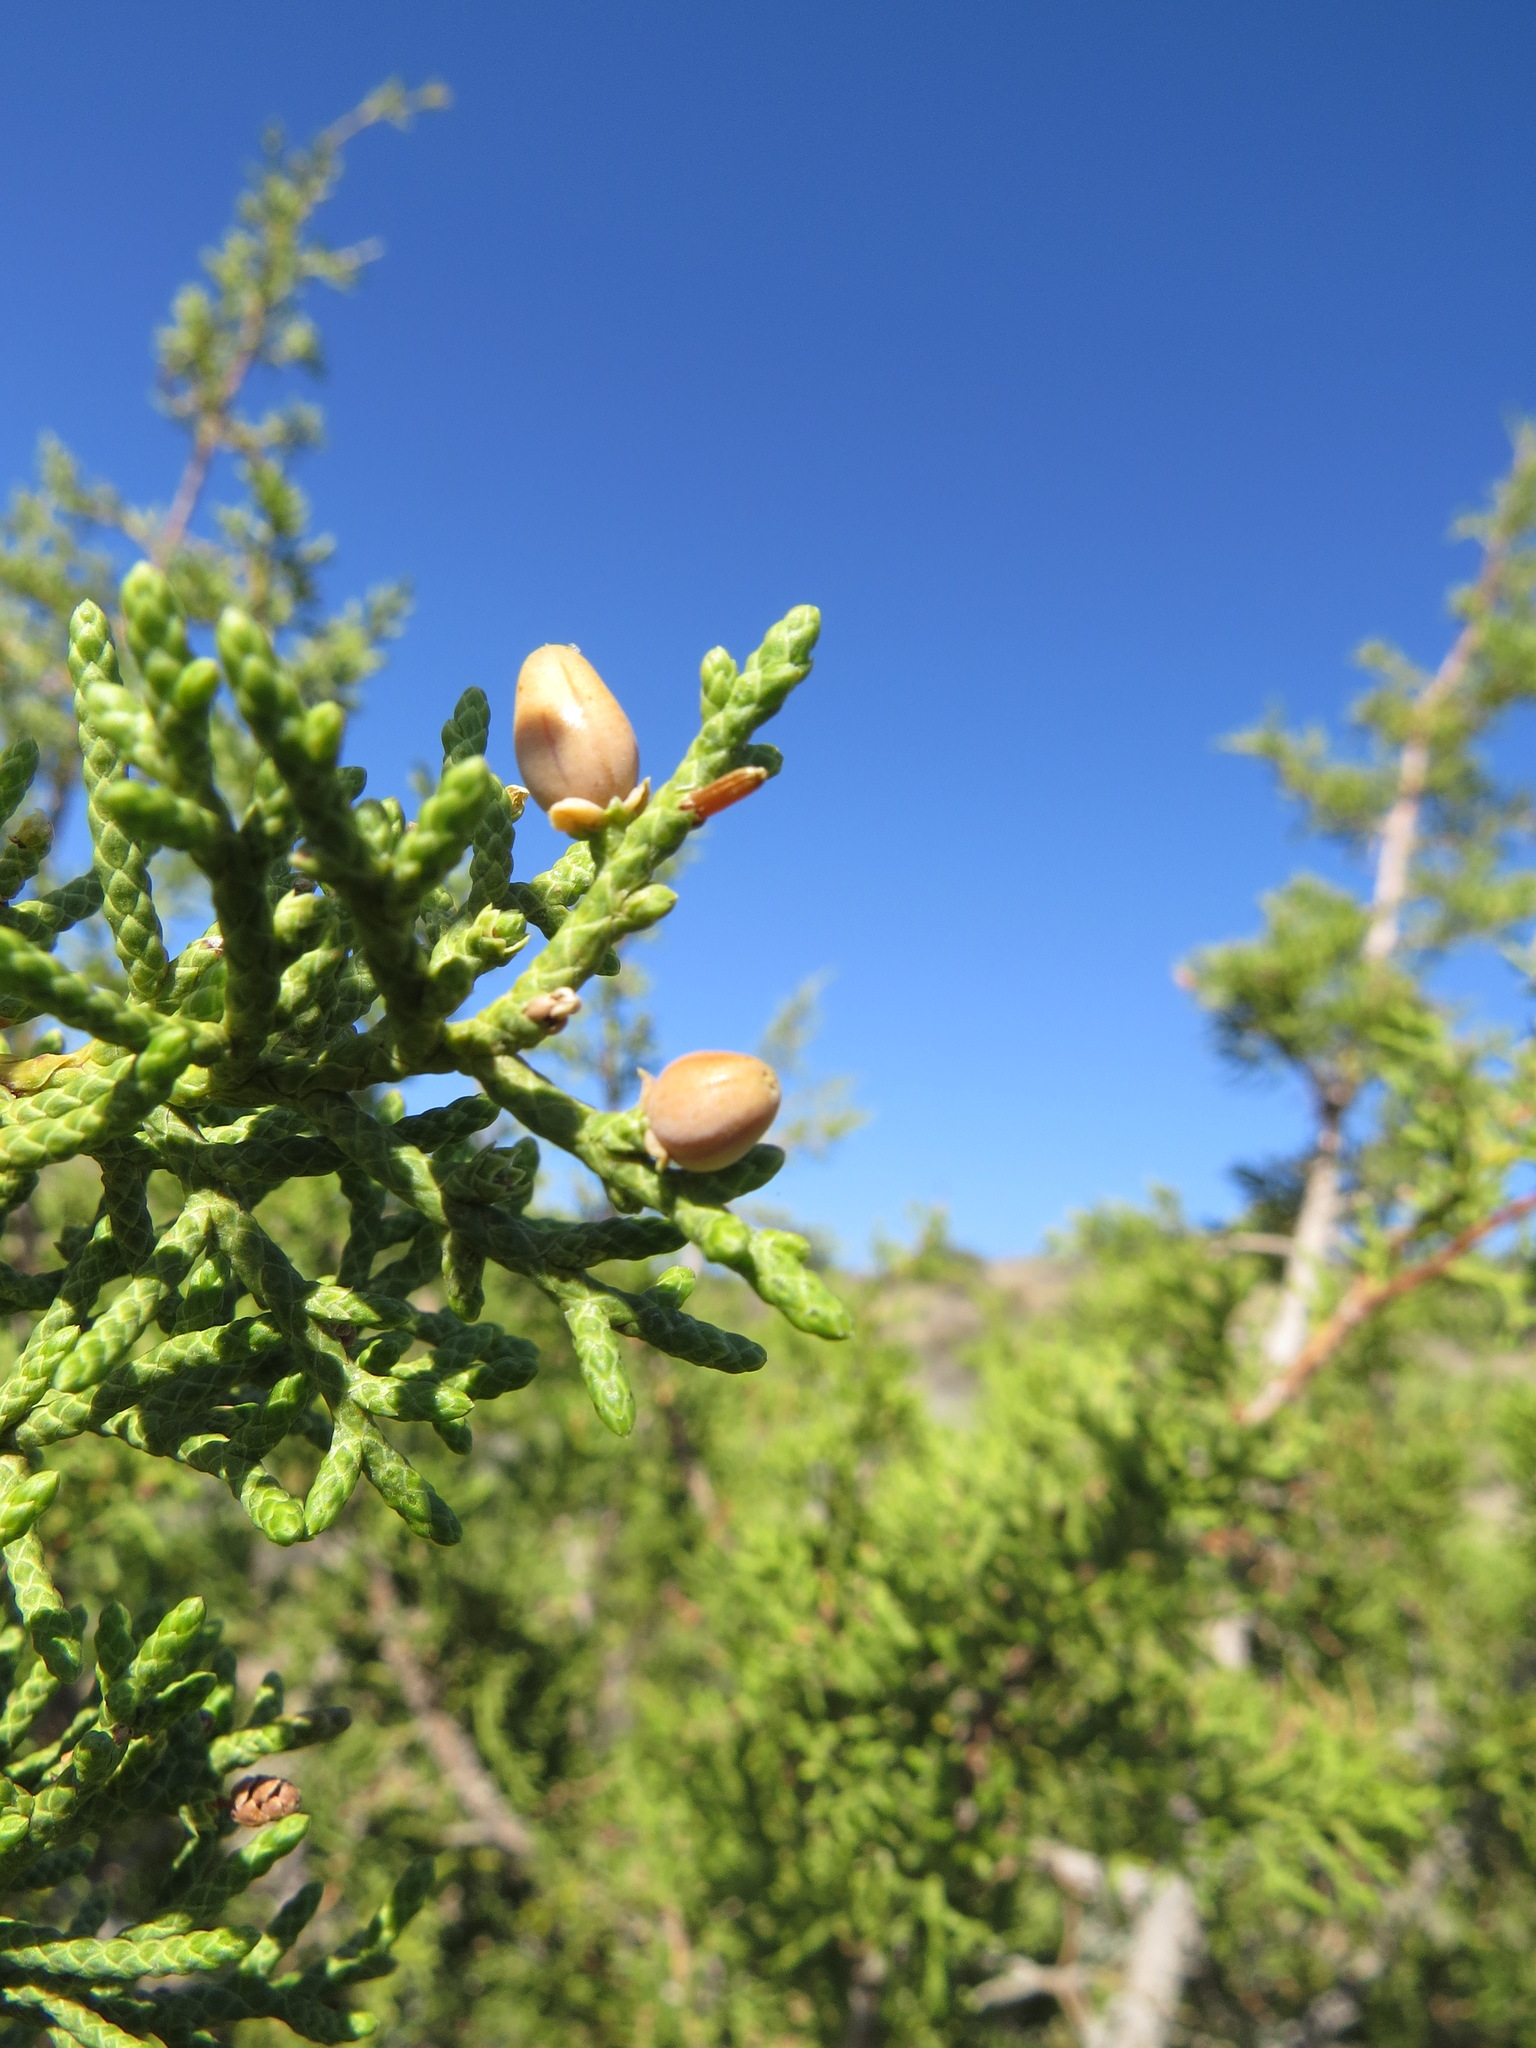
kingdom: Animalia
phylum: Arthropoda
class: Insecta
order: Diptera
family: Cecidomyiidae
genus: Walshomyia
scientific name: Walshomyia juniperina
